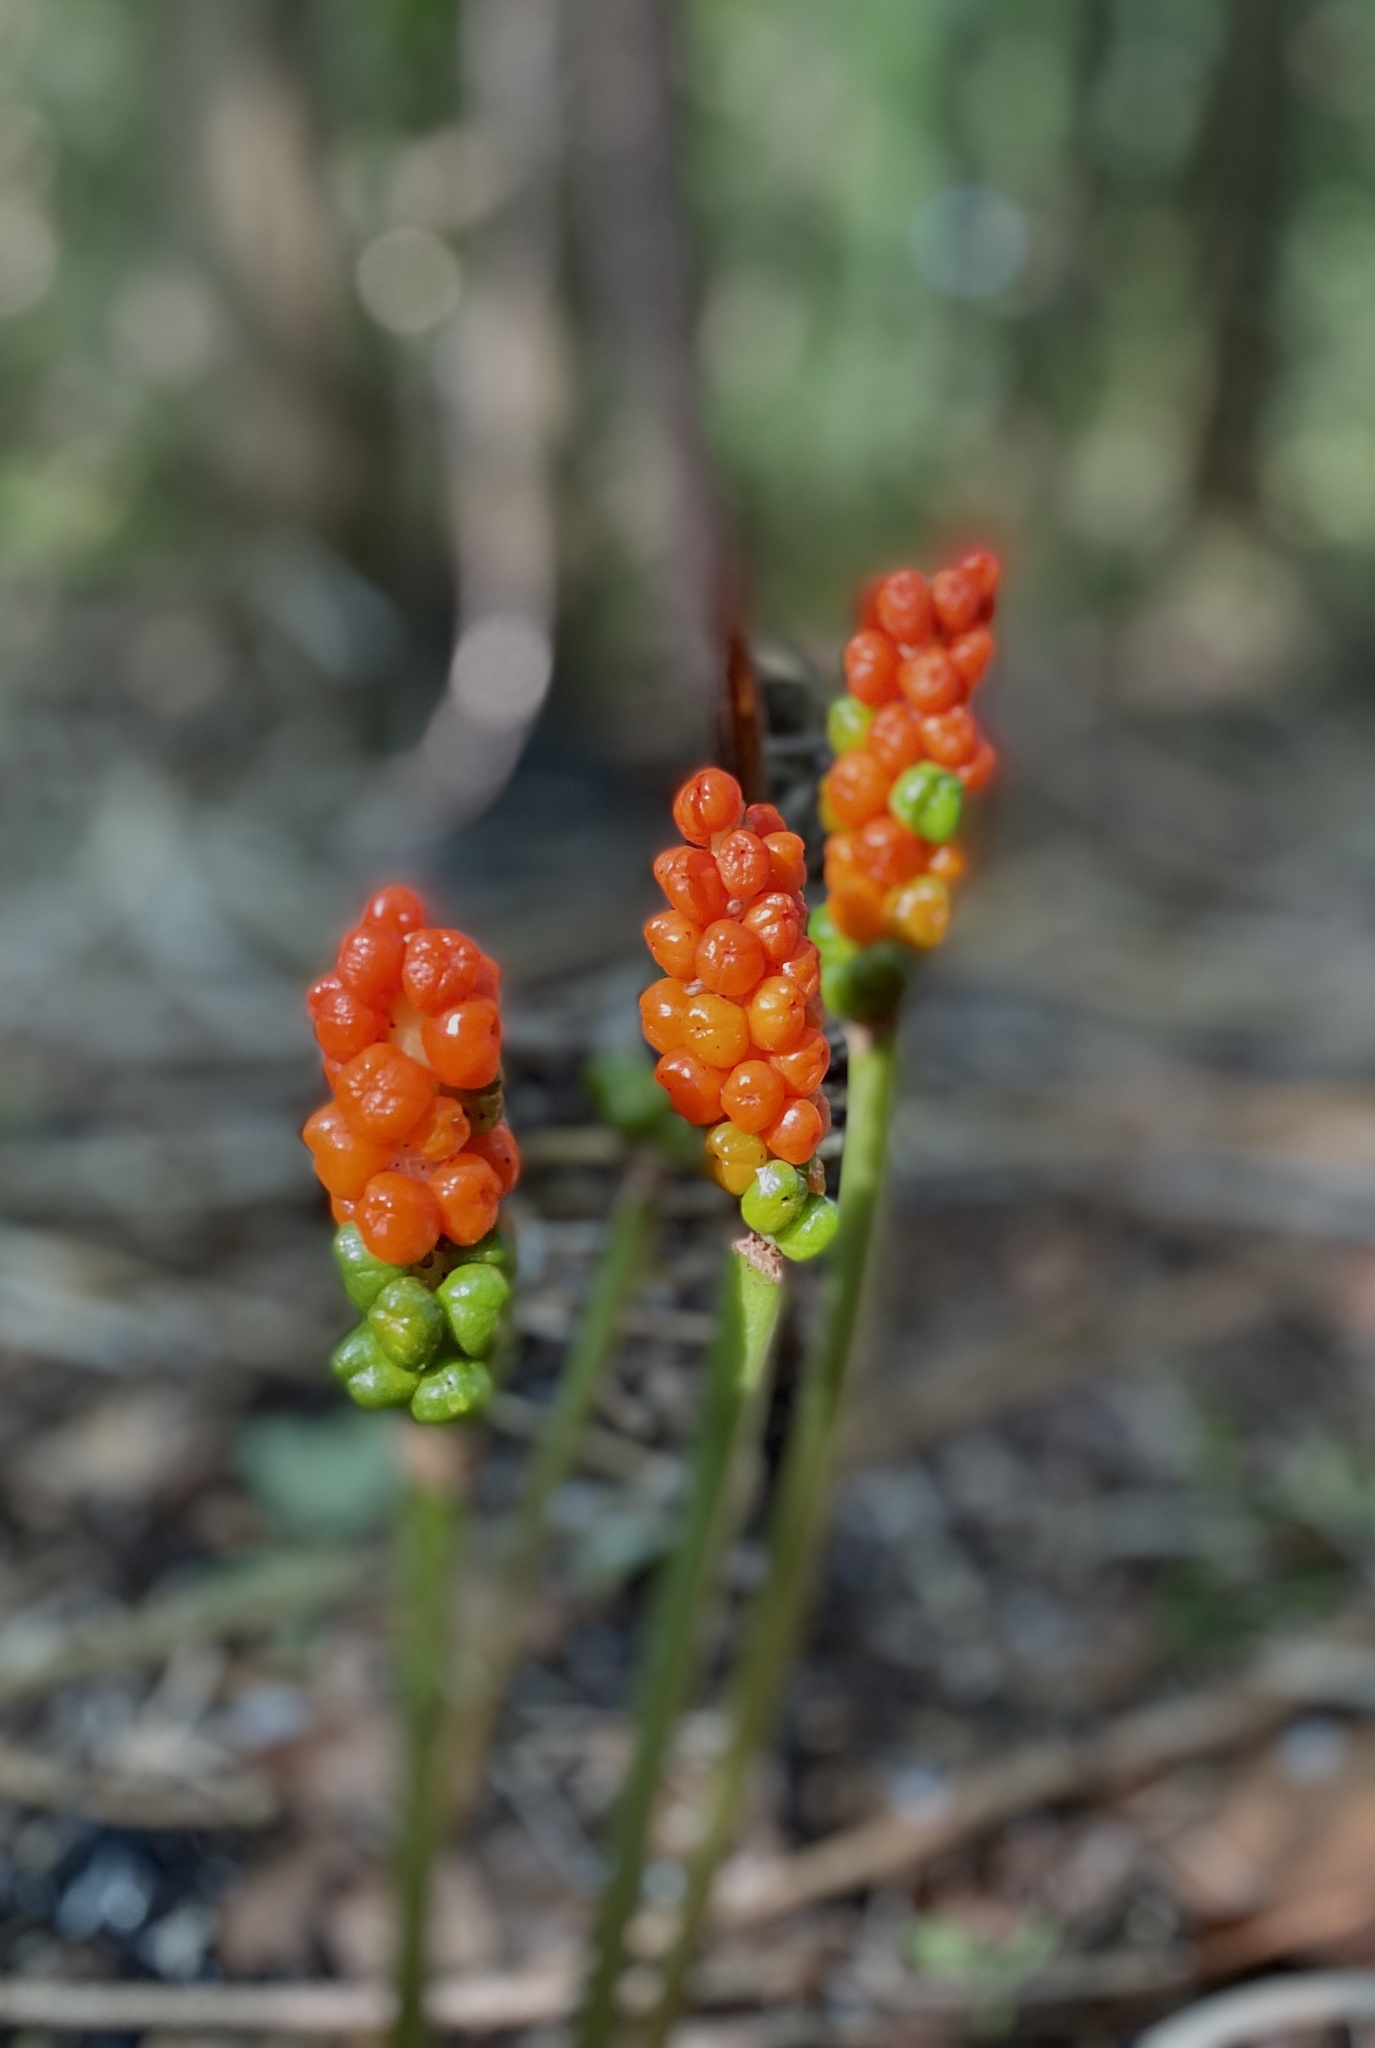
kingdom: Plantae
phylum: Tracheophyta
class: Liliopsida
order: Alismatales
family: Araceae
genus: Arum
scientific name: Arum maculatum
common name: Lords-and-ladies
